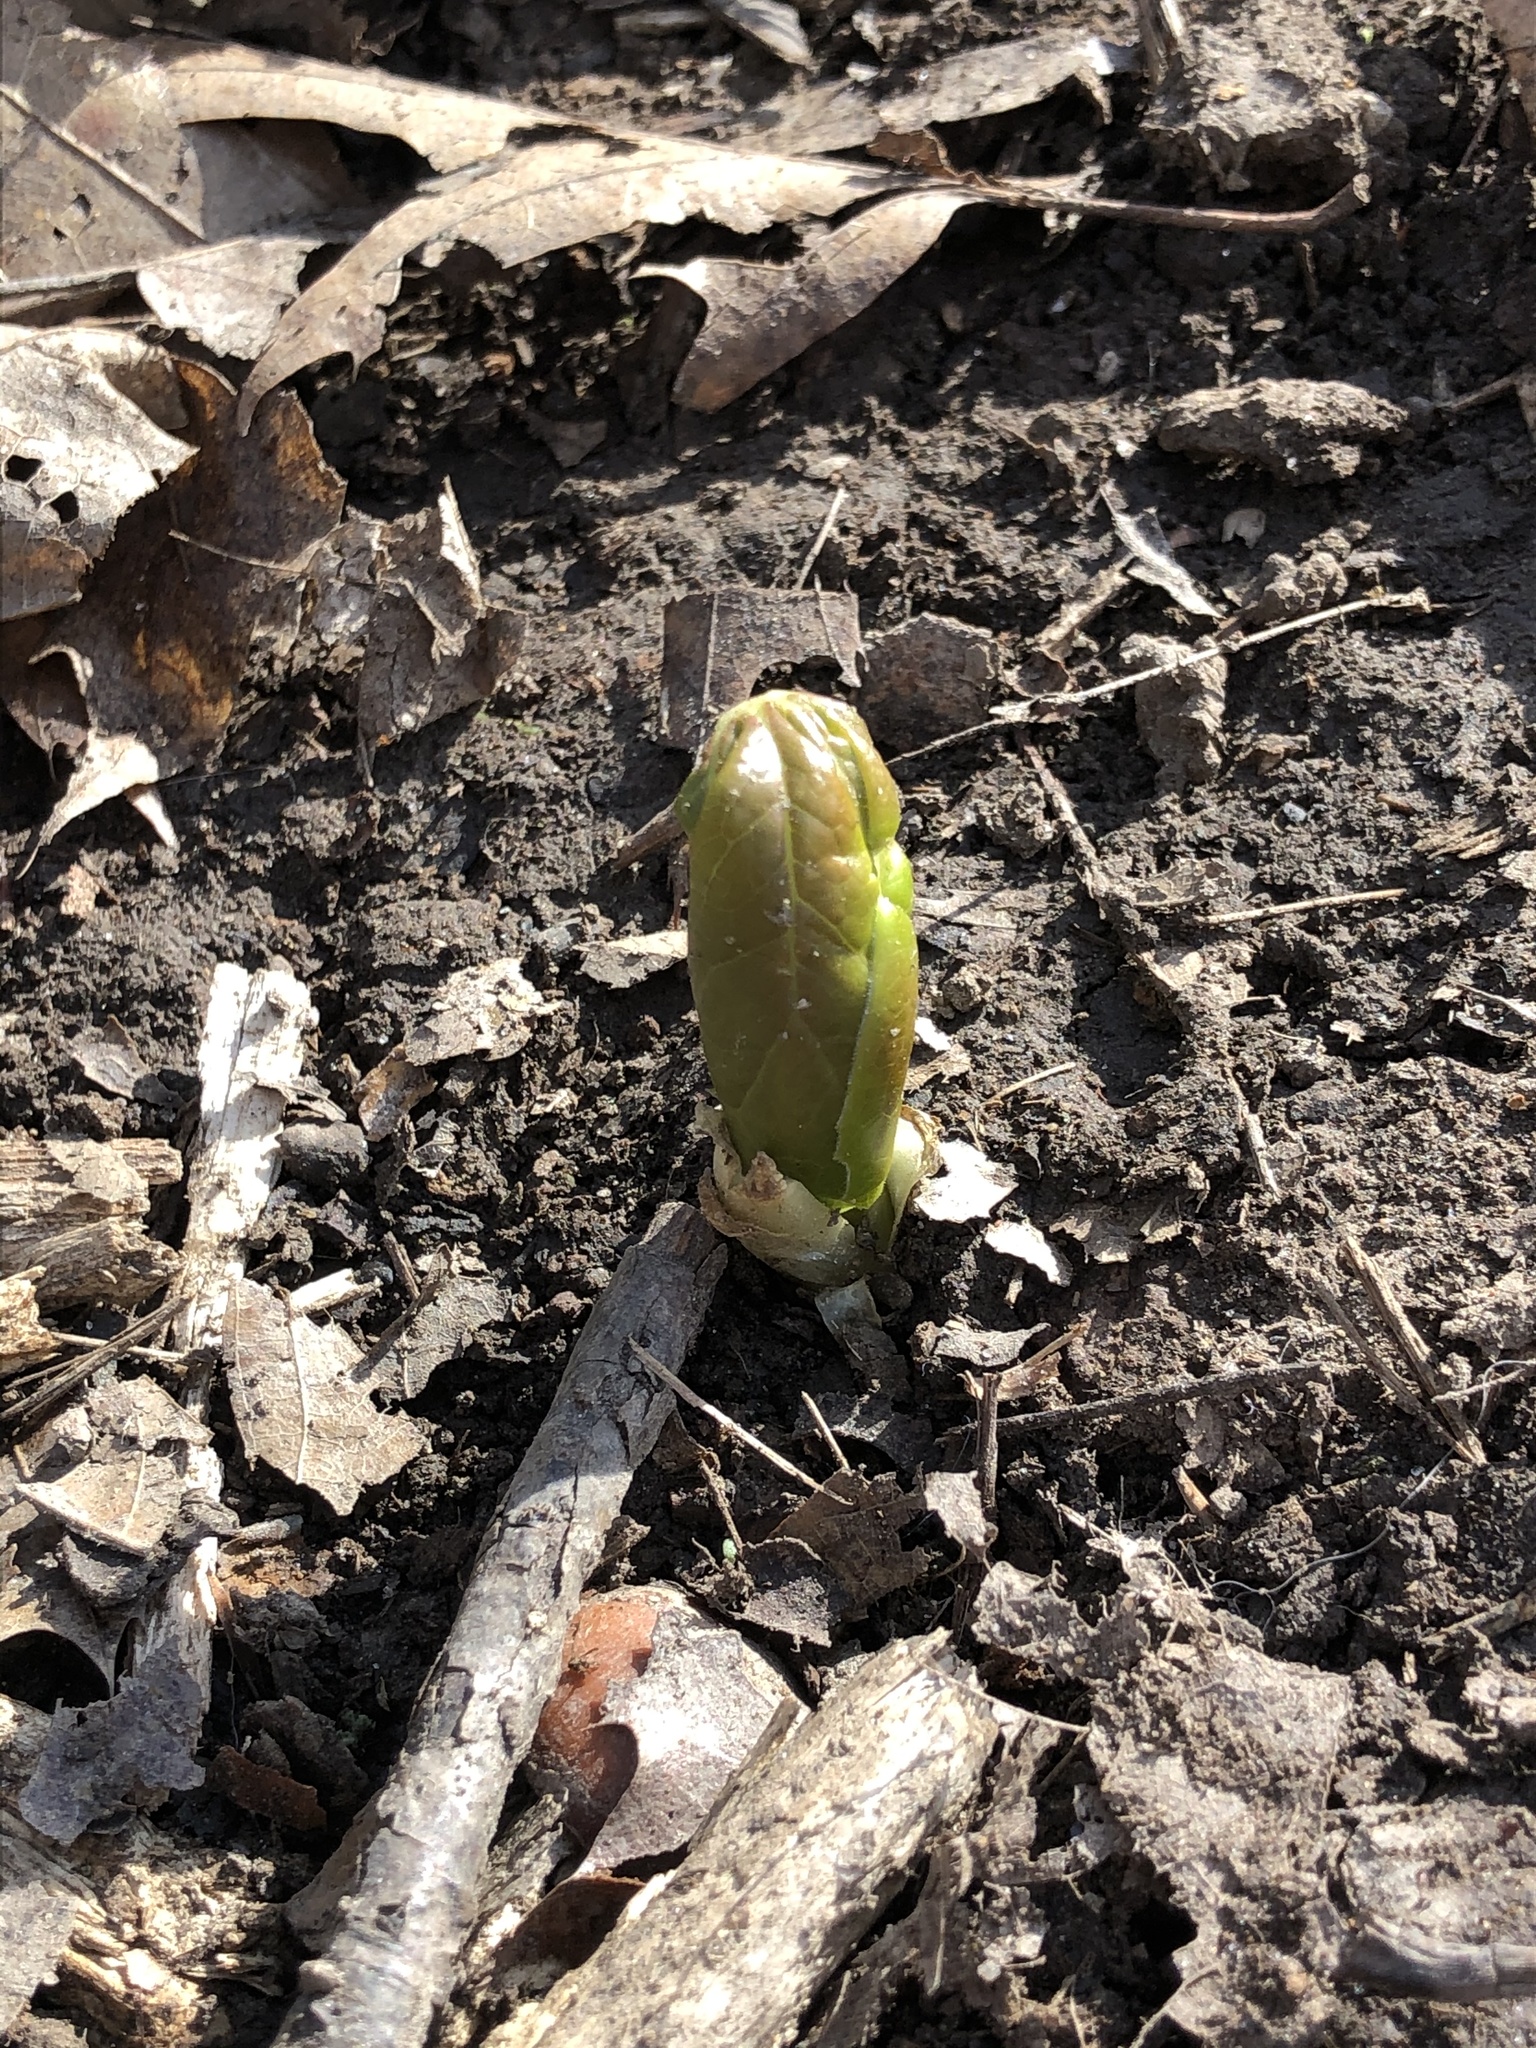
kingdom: Plantae
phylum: Tracheophyta
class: Magnoliopsida
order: Ranunculales
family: Berberidaceae
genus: Podophyllum
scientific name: Podophyllum peltatum
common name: Wild mandrake
